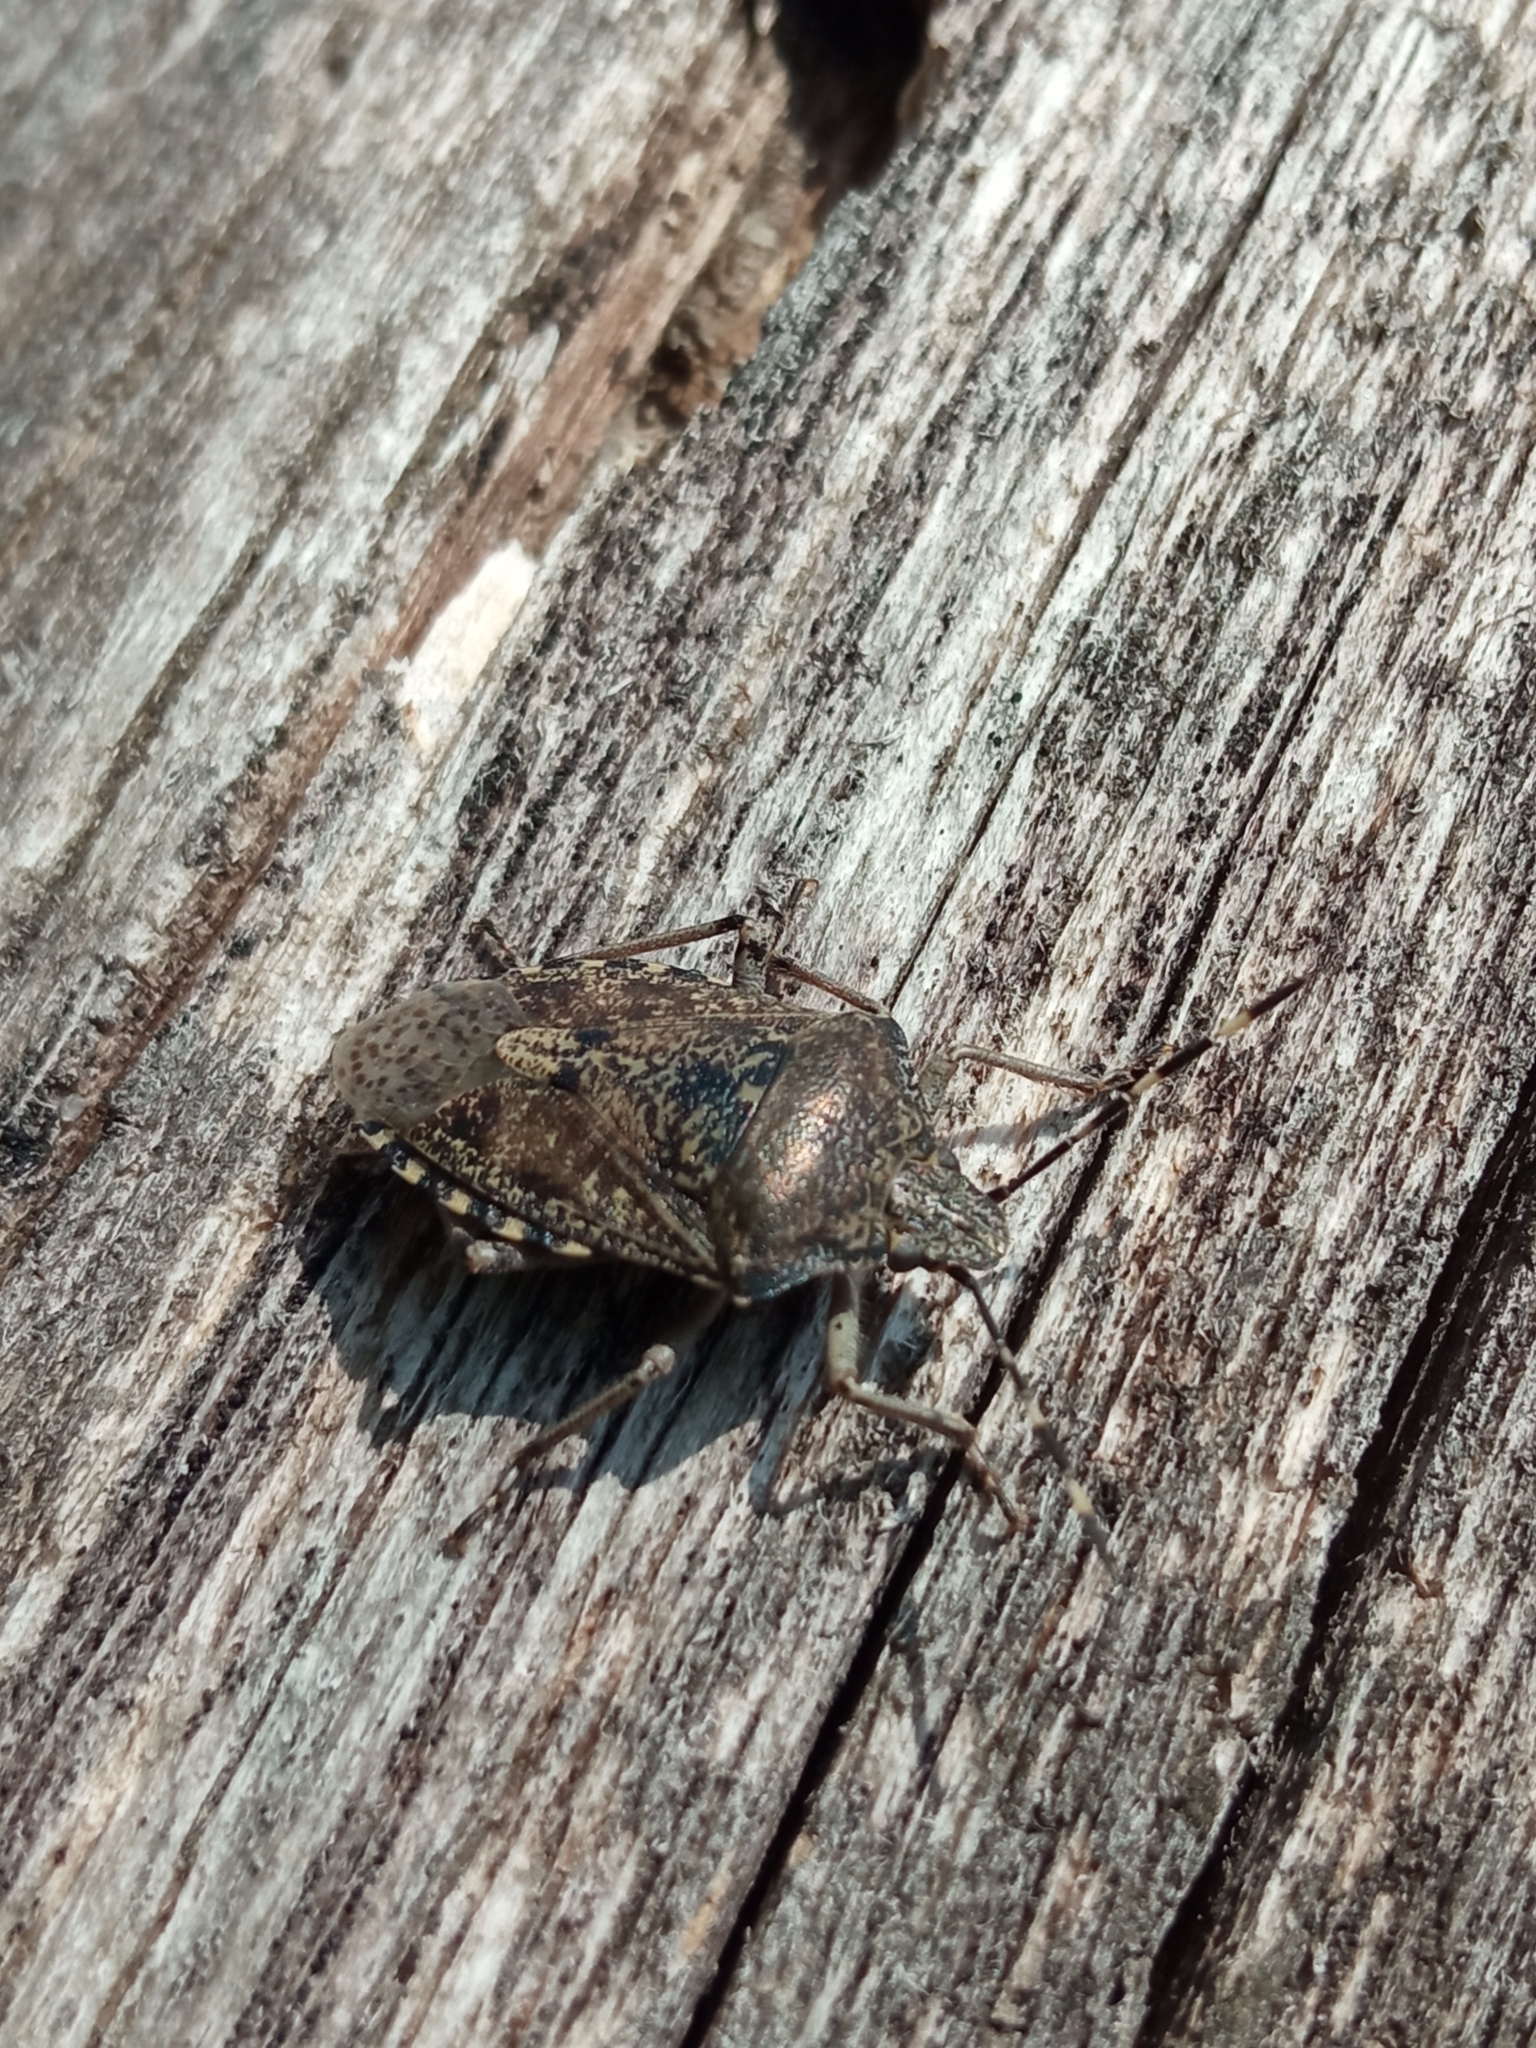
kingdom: Animalia
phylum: Arthropoda
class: Insecta
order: Hemiptera
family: Pentatomidae
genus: Rhaphigaster
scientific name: Rhaphigaster nebulosa
